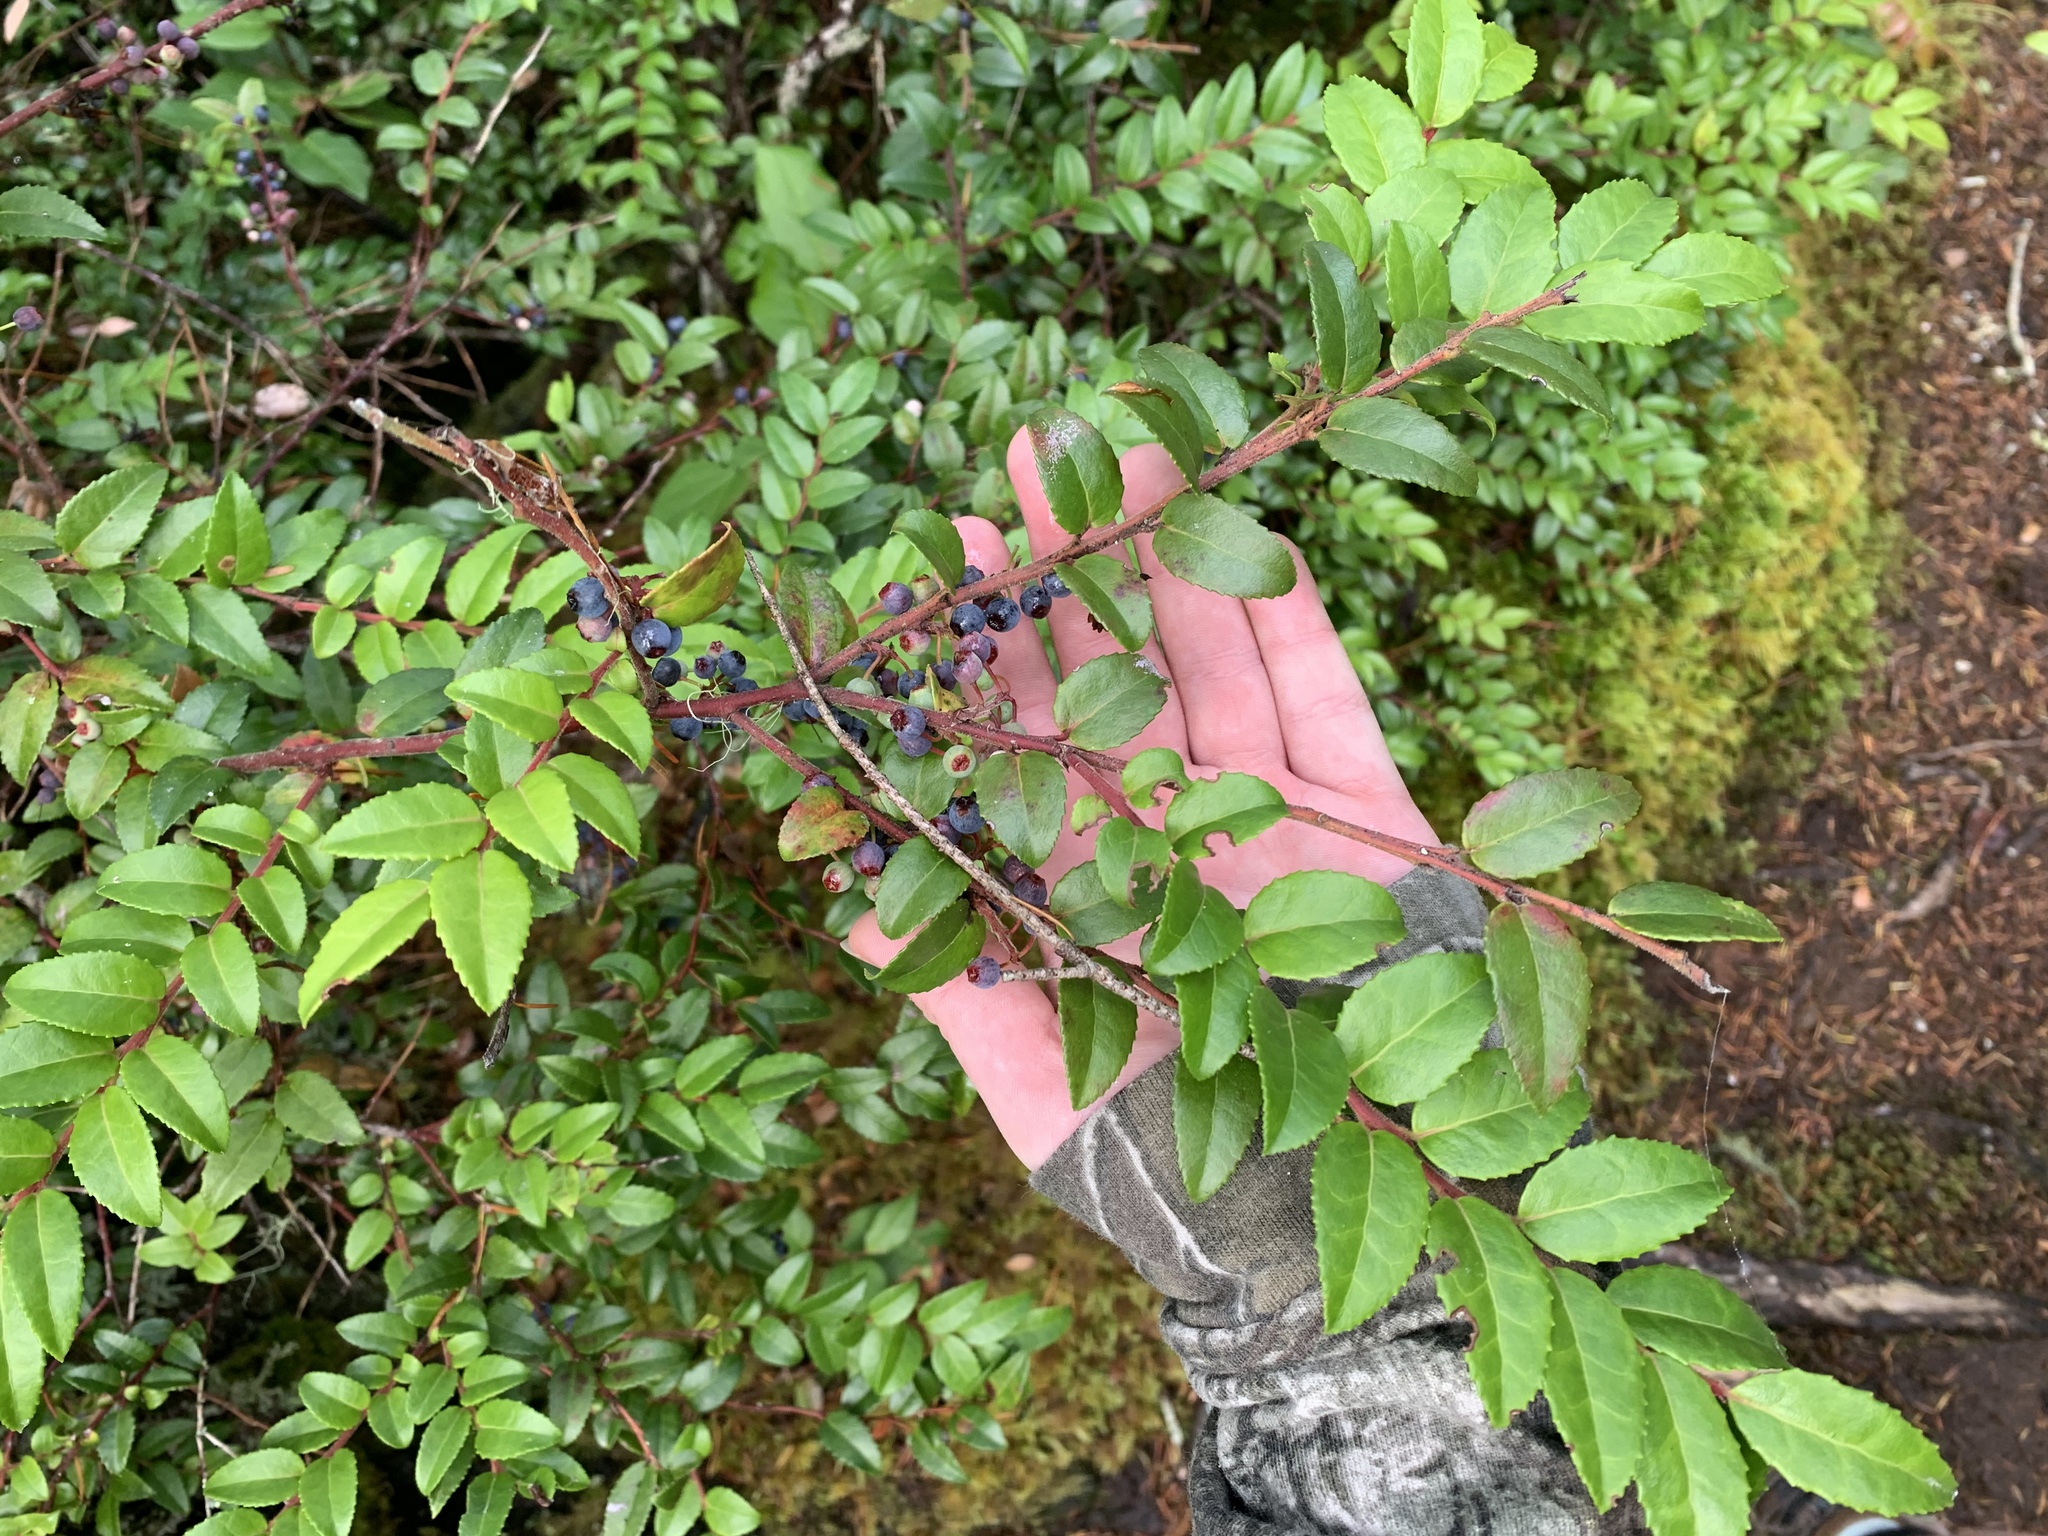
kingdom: Plantae
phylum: Tracheophyta
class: Magnoliopsida
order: Ericales
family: Ericaceae
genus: Vaccinium
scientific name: Vaccinium ovatum
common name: California-huckleberry
